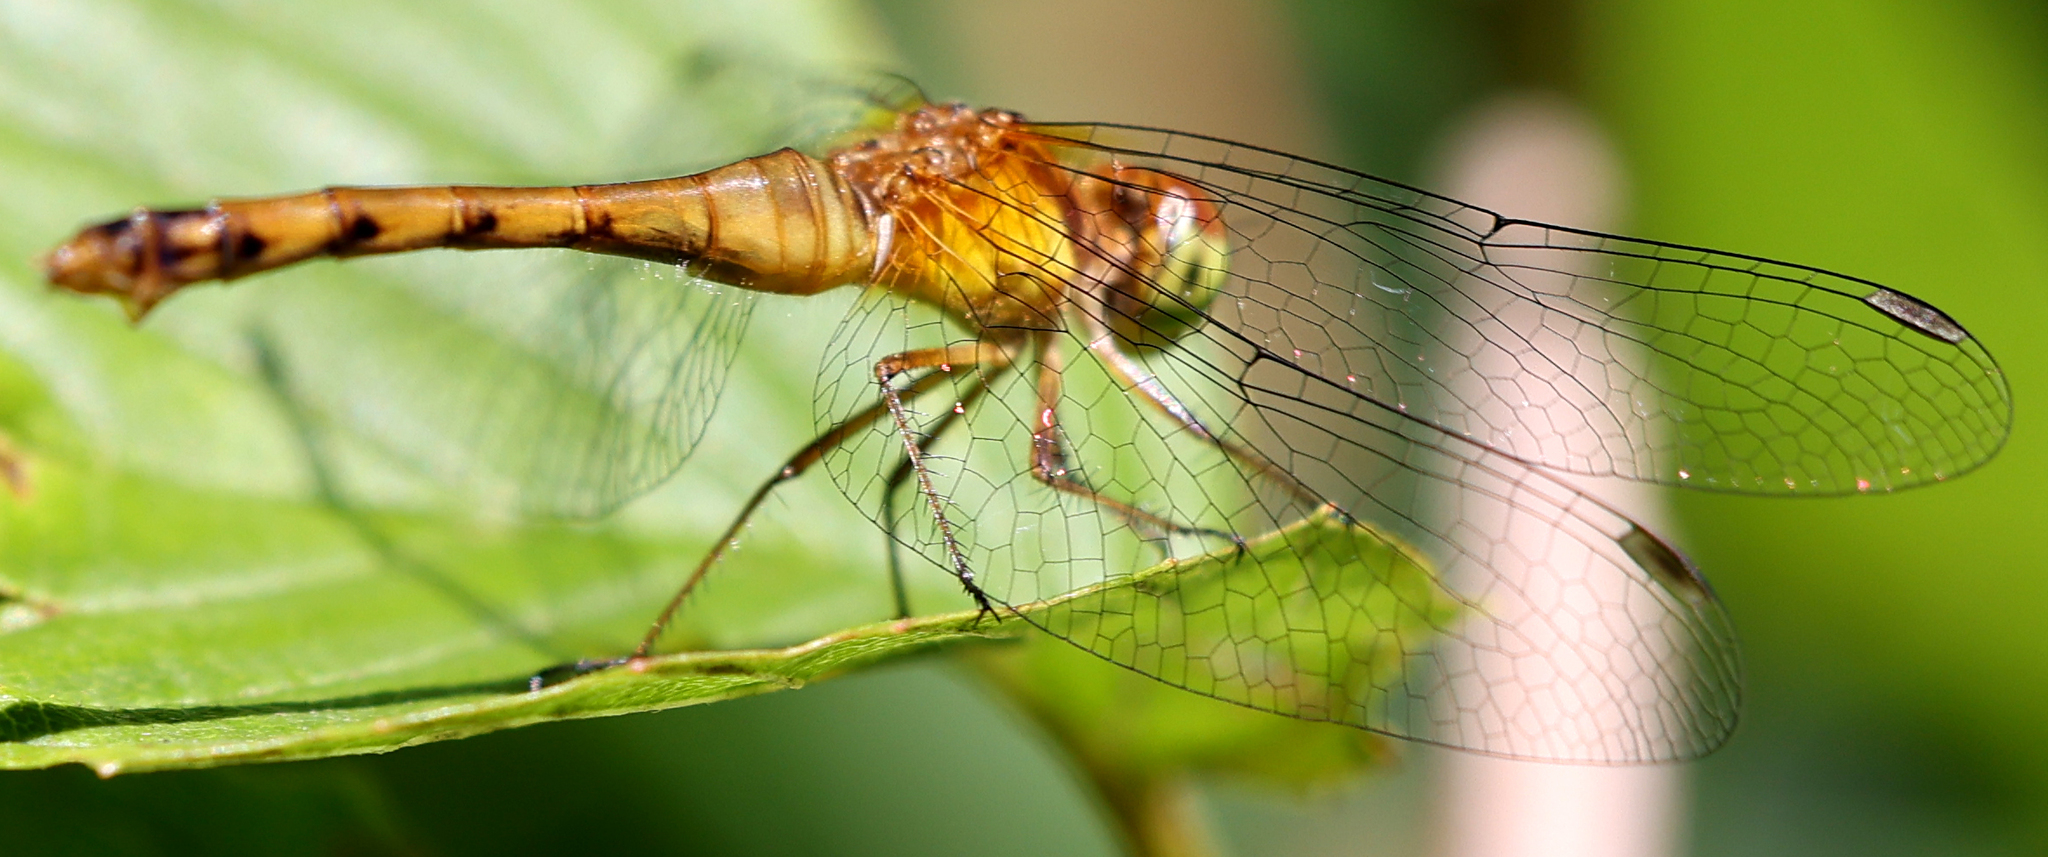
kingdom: Animalia
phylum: Arthropoda
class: Insecta
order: Odonata
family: Libellulidae
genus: Sympetrum
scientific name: Sympetrum vicinum
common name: Autumn meadowhawk
